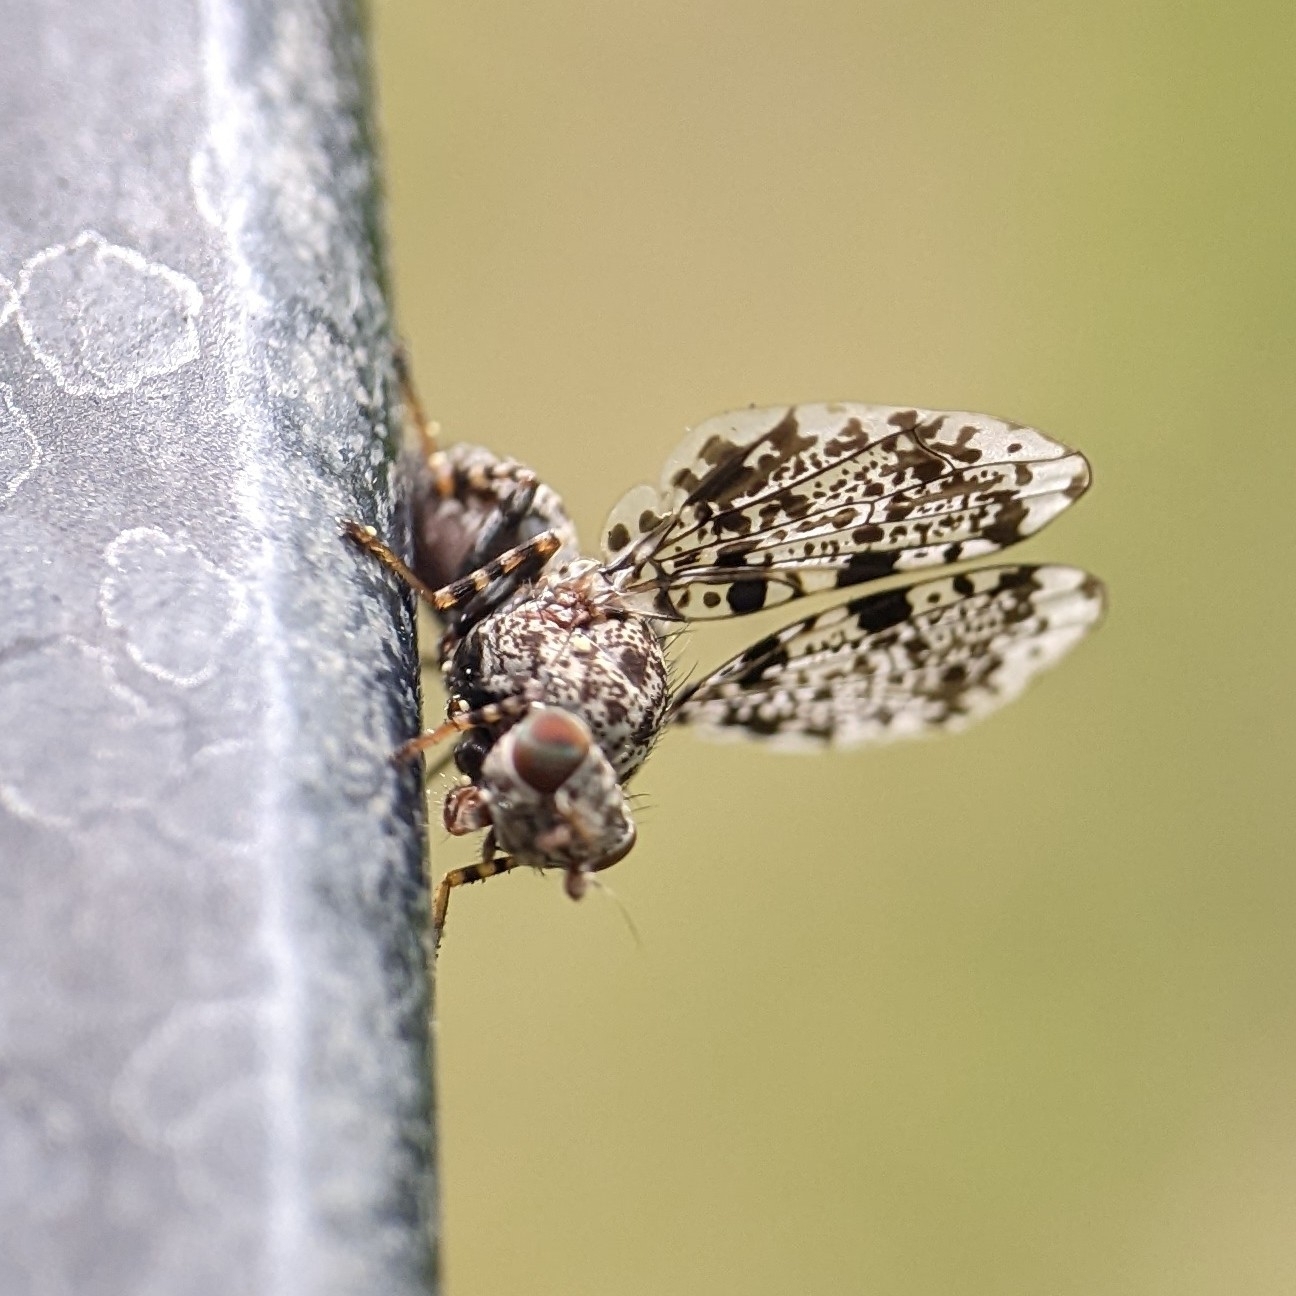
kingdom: Animalia
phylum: Arthropoda
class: Insecta
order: Diptera
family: Ulidiidae
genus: Callopistromyia
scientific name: Callopistromyia annulipes
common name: Peacock fly
